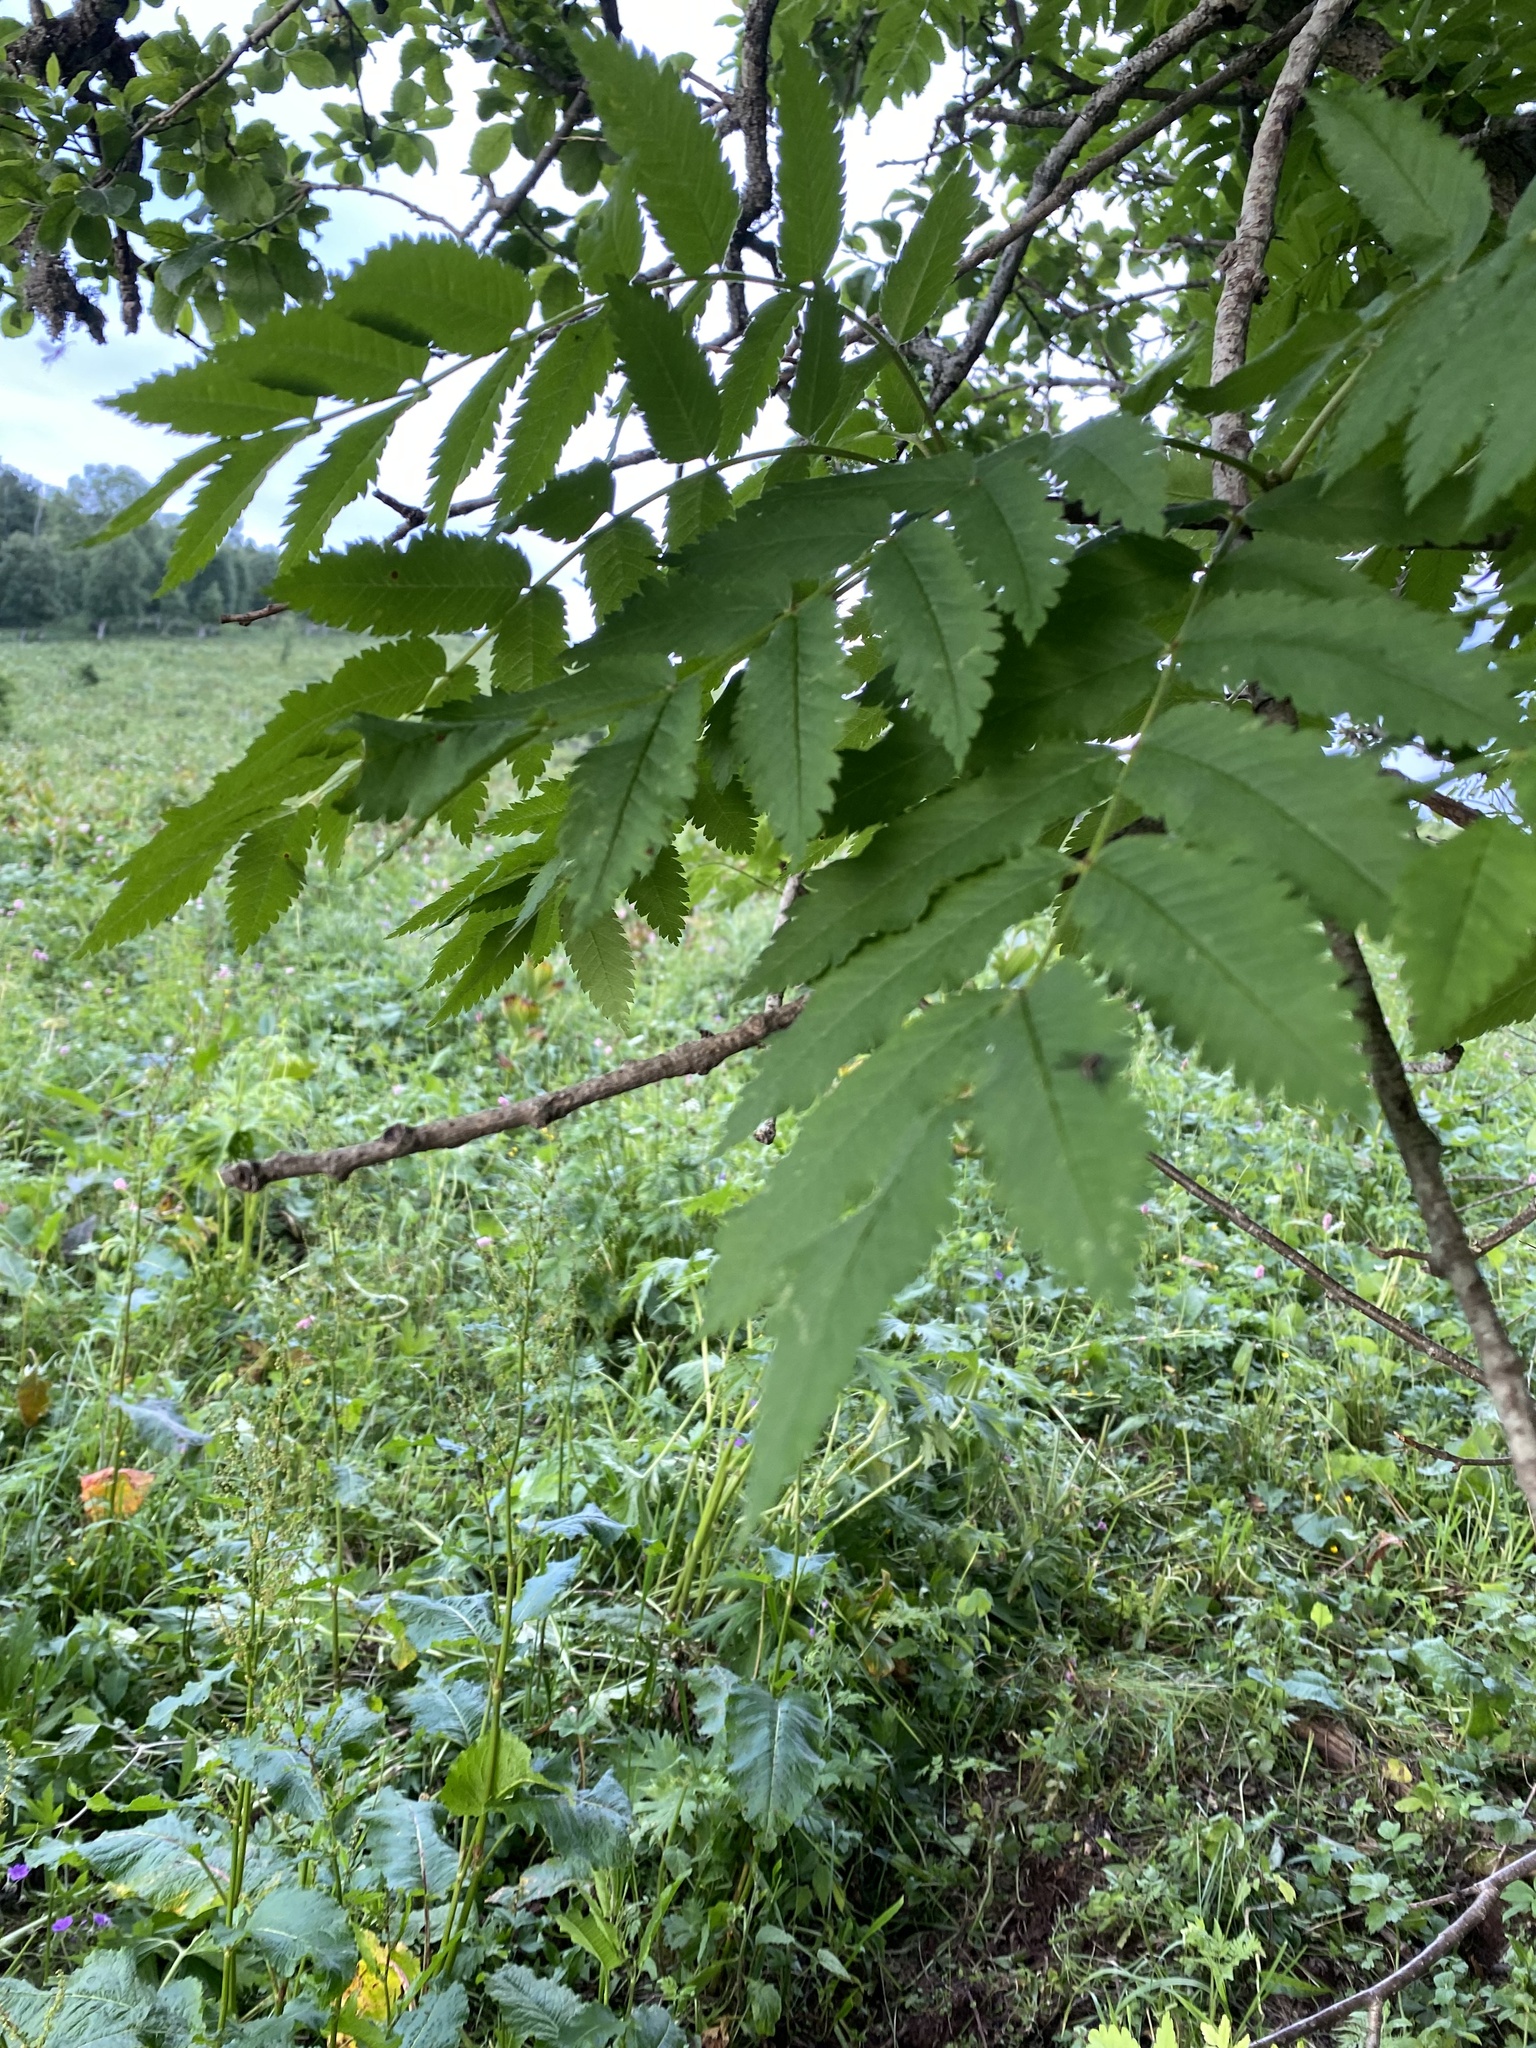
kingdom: Plantae
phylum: Tracheophyta
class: Magnoliopsida
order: Rosales
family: Rosaceae
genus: Sorbus
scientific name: Sorbus aucuparia
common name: Rowan
